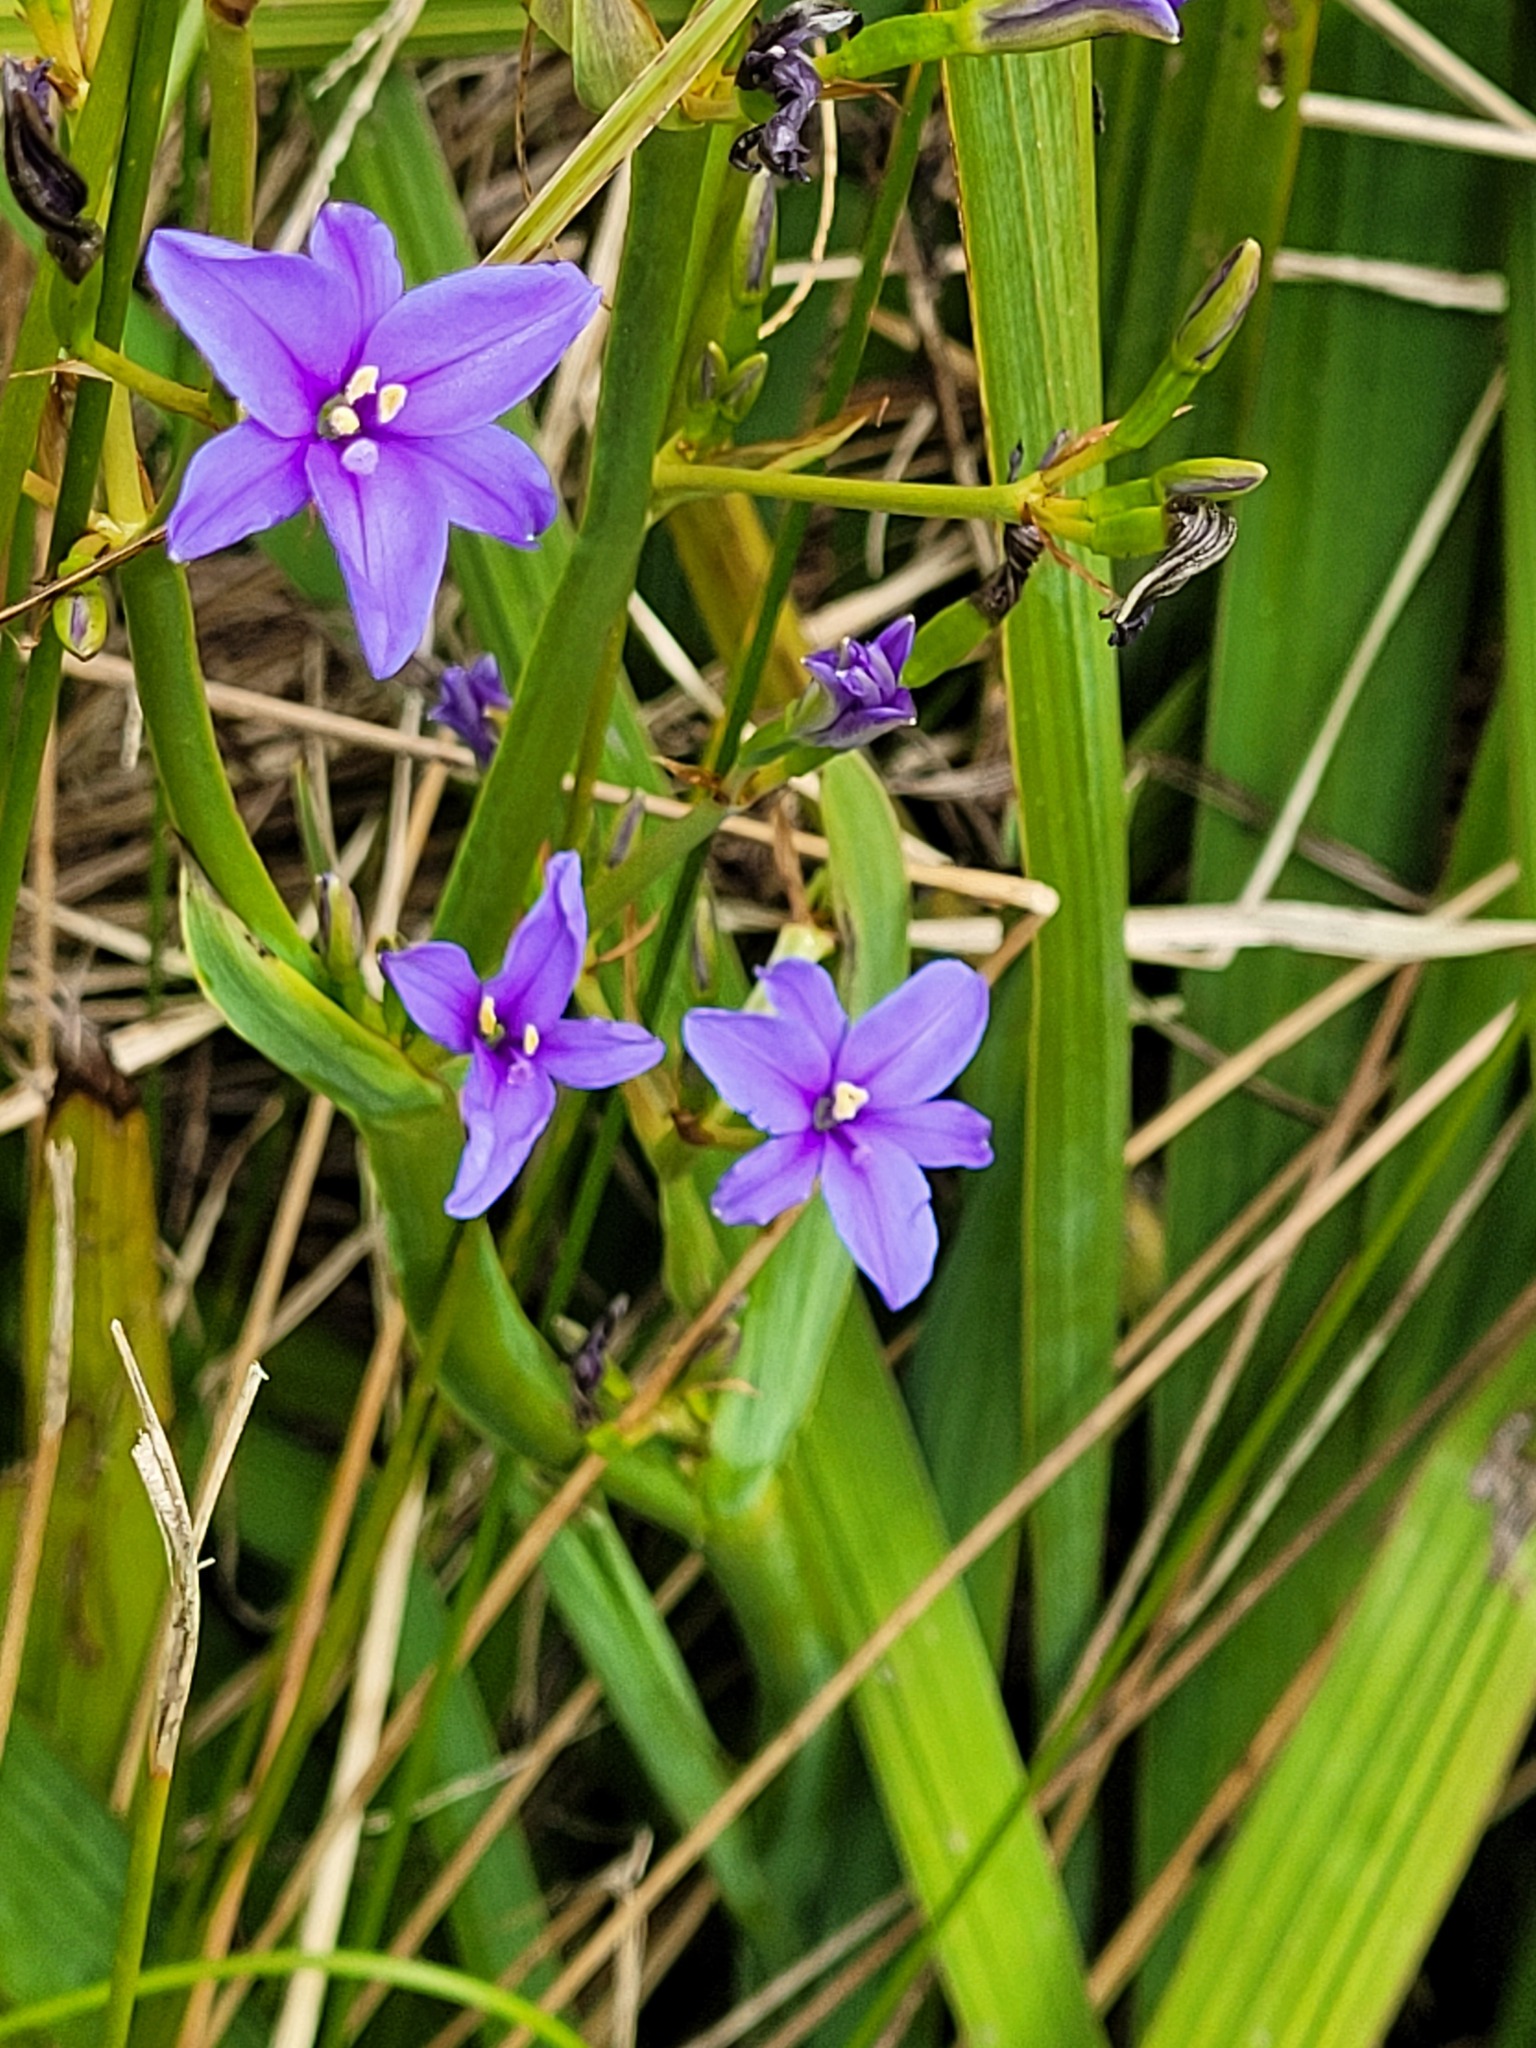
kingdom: Plantae
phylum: Tracheophyta
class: Liliopsida
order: Asparagales
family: Iridaceae
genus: Aristea
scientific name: Aristea ecklonii
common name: Blue corn-lily
